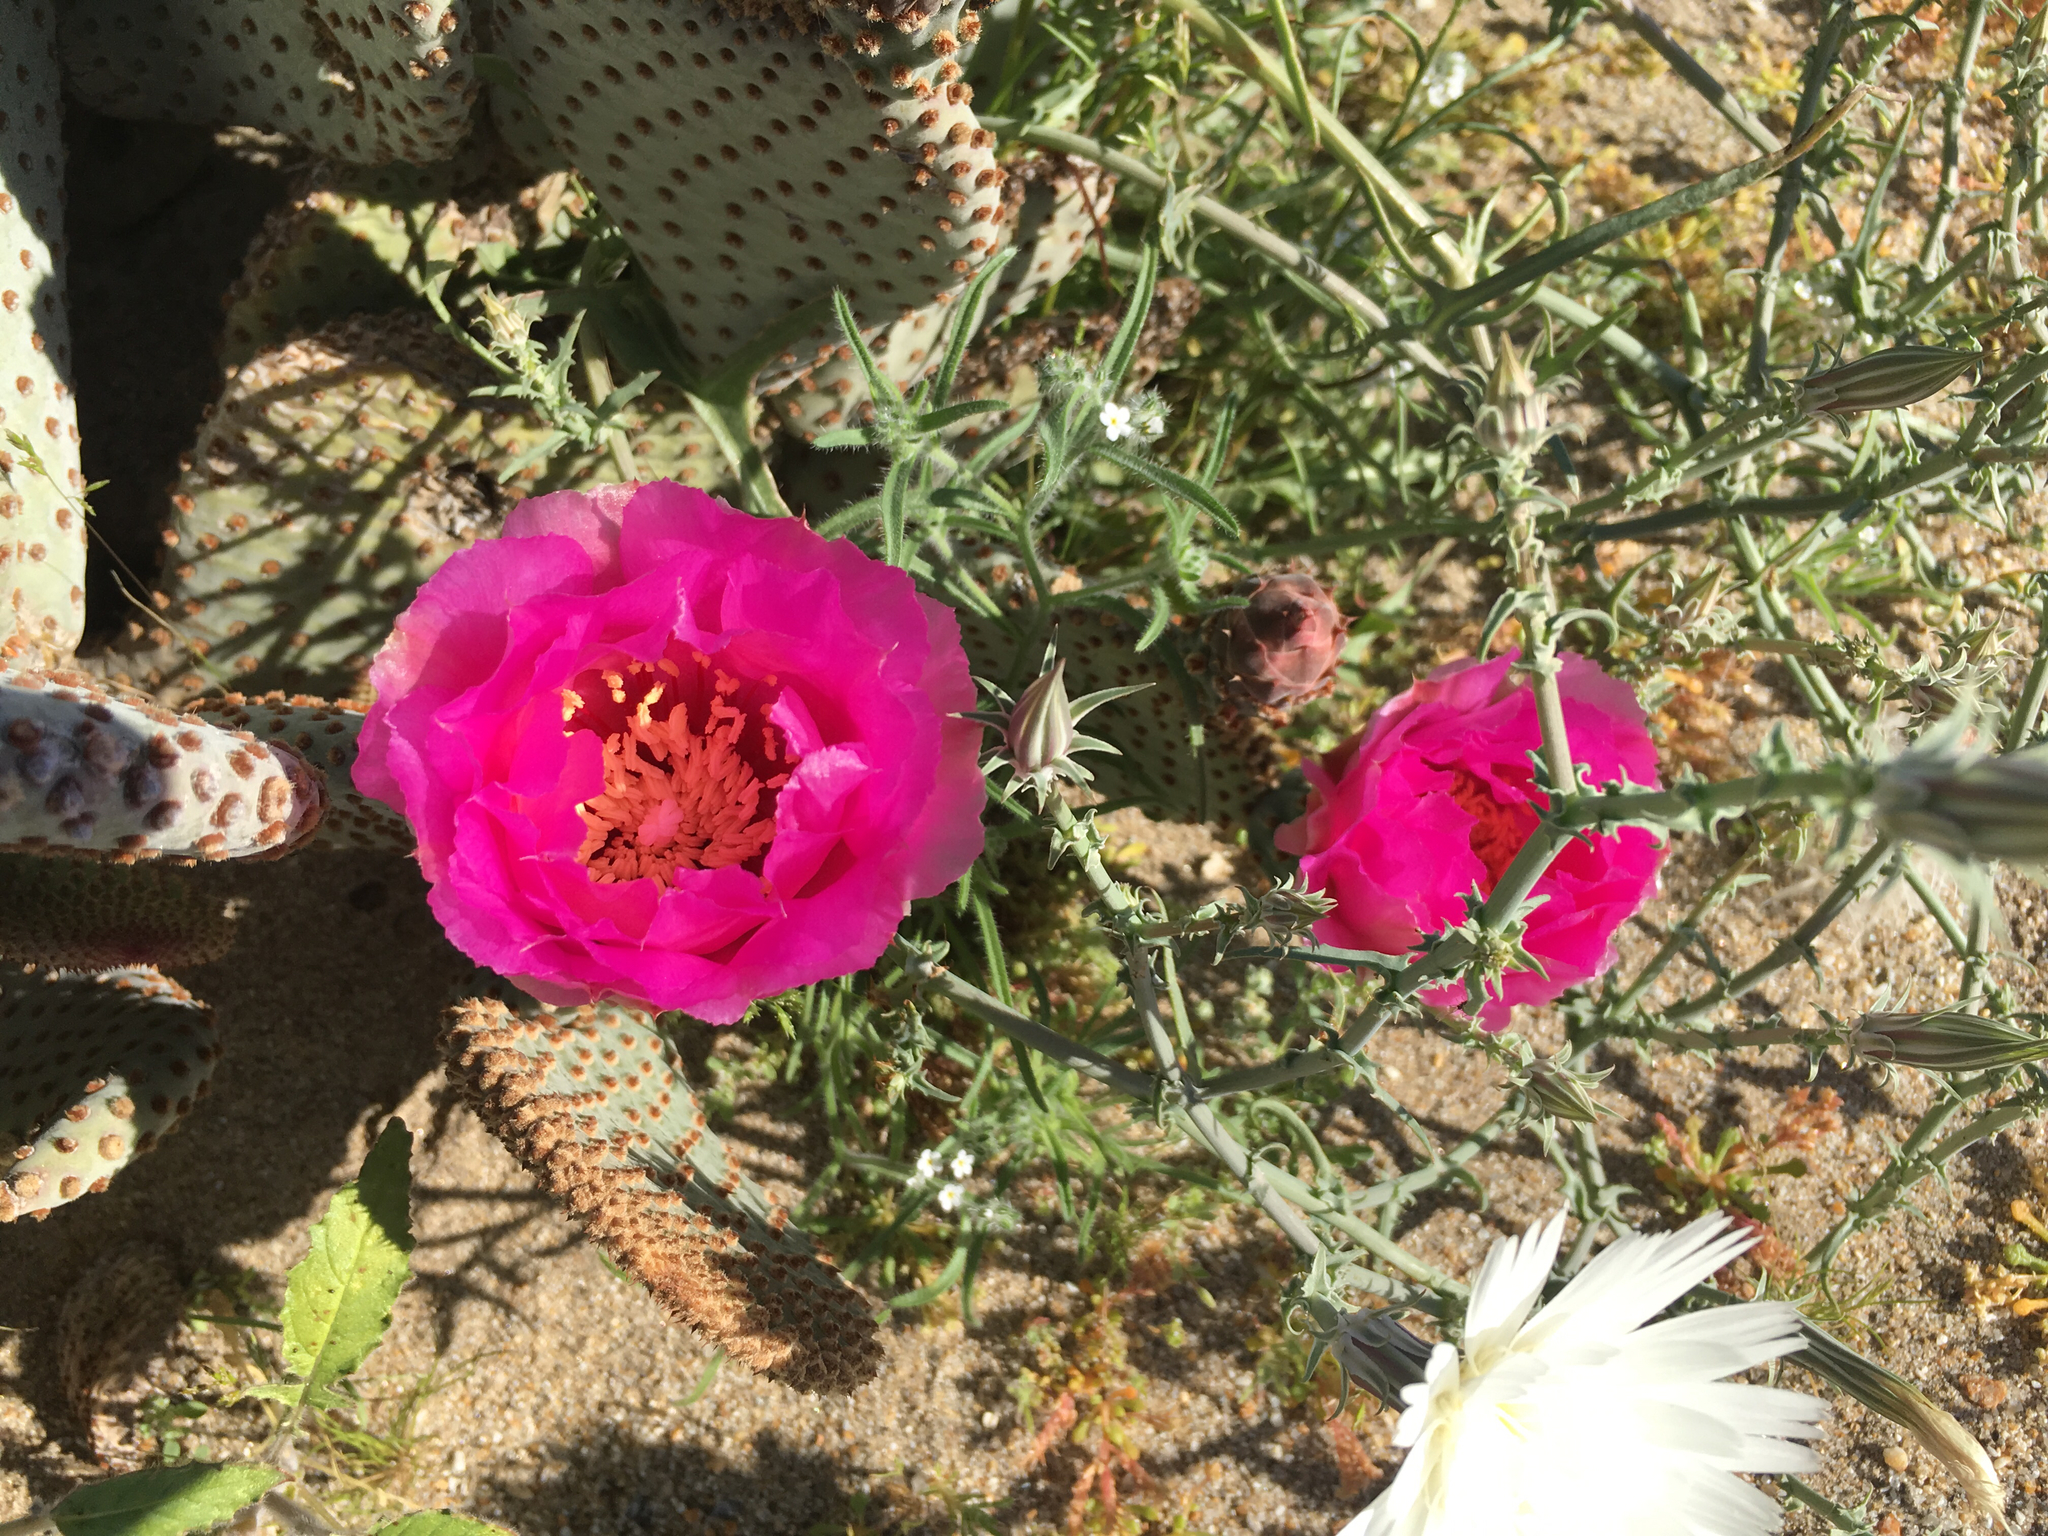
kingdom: Plantae
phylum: Tracheophyta
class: Magnoliopsida
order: Caryophyllales
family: Cactaceae
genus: Opuntia
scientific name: Opuntia basilaris
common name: Beavertail prickly-pear
